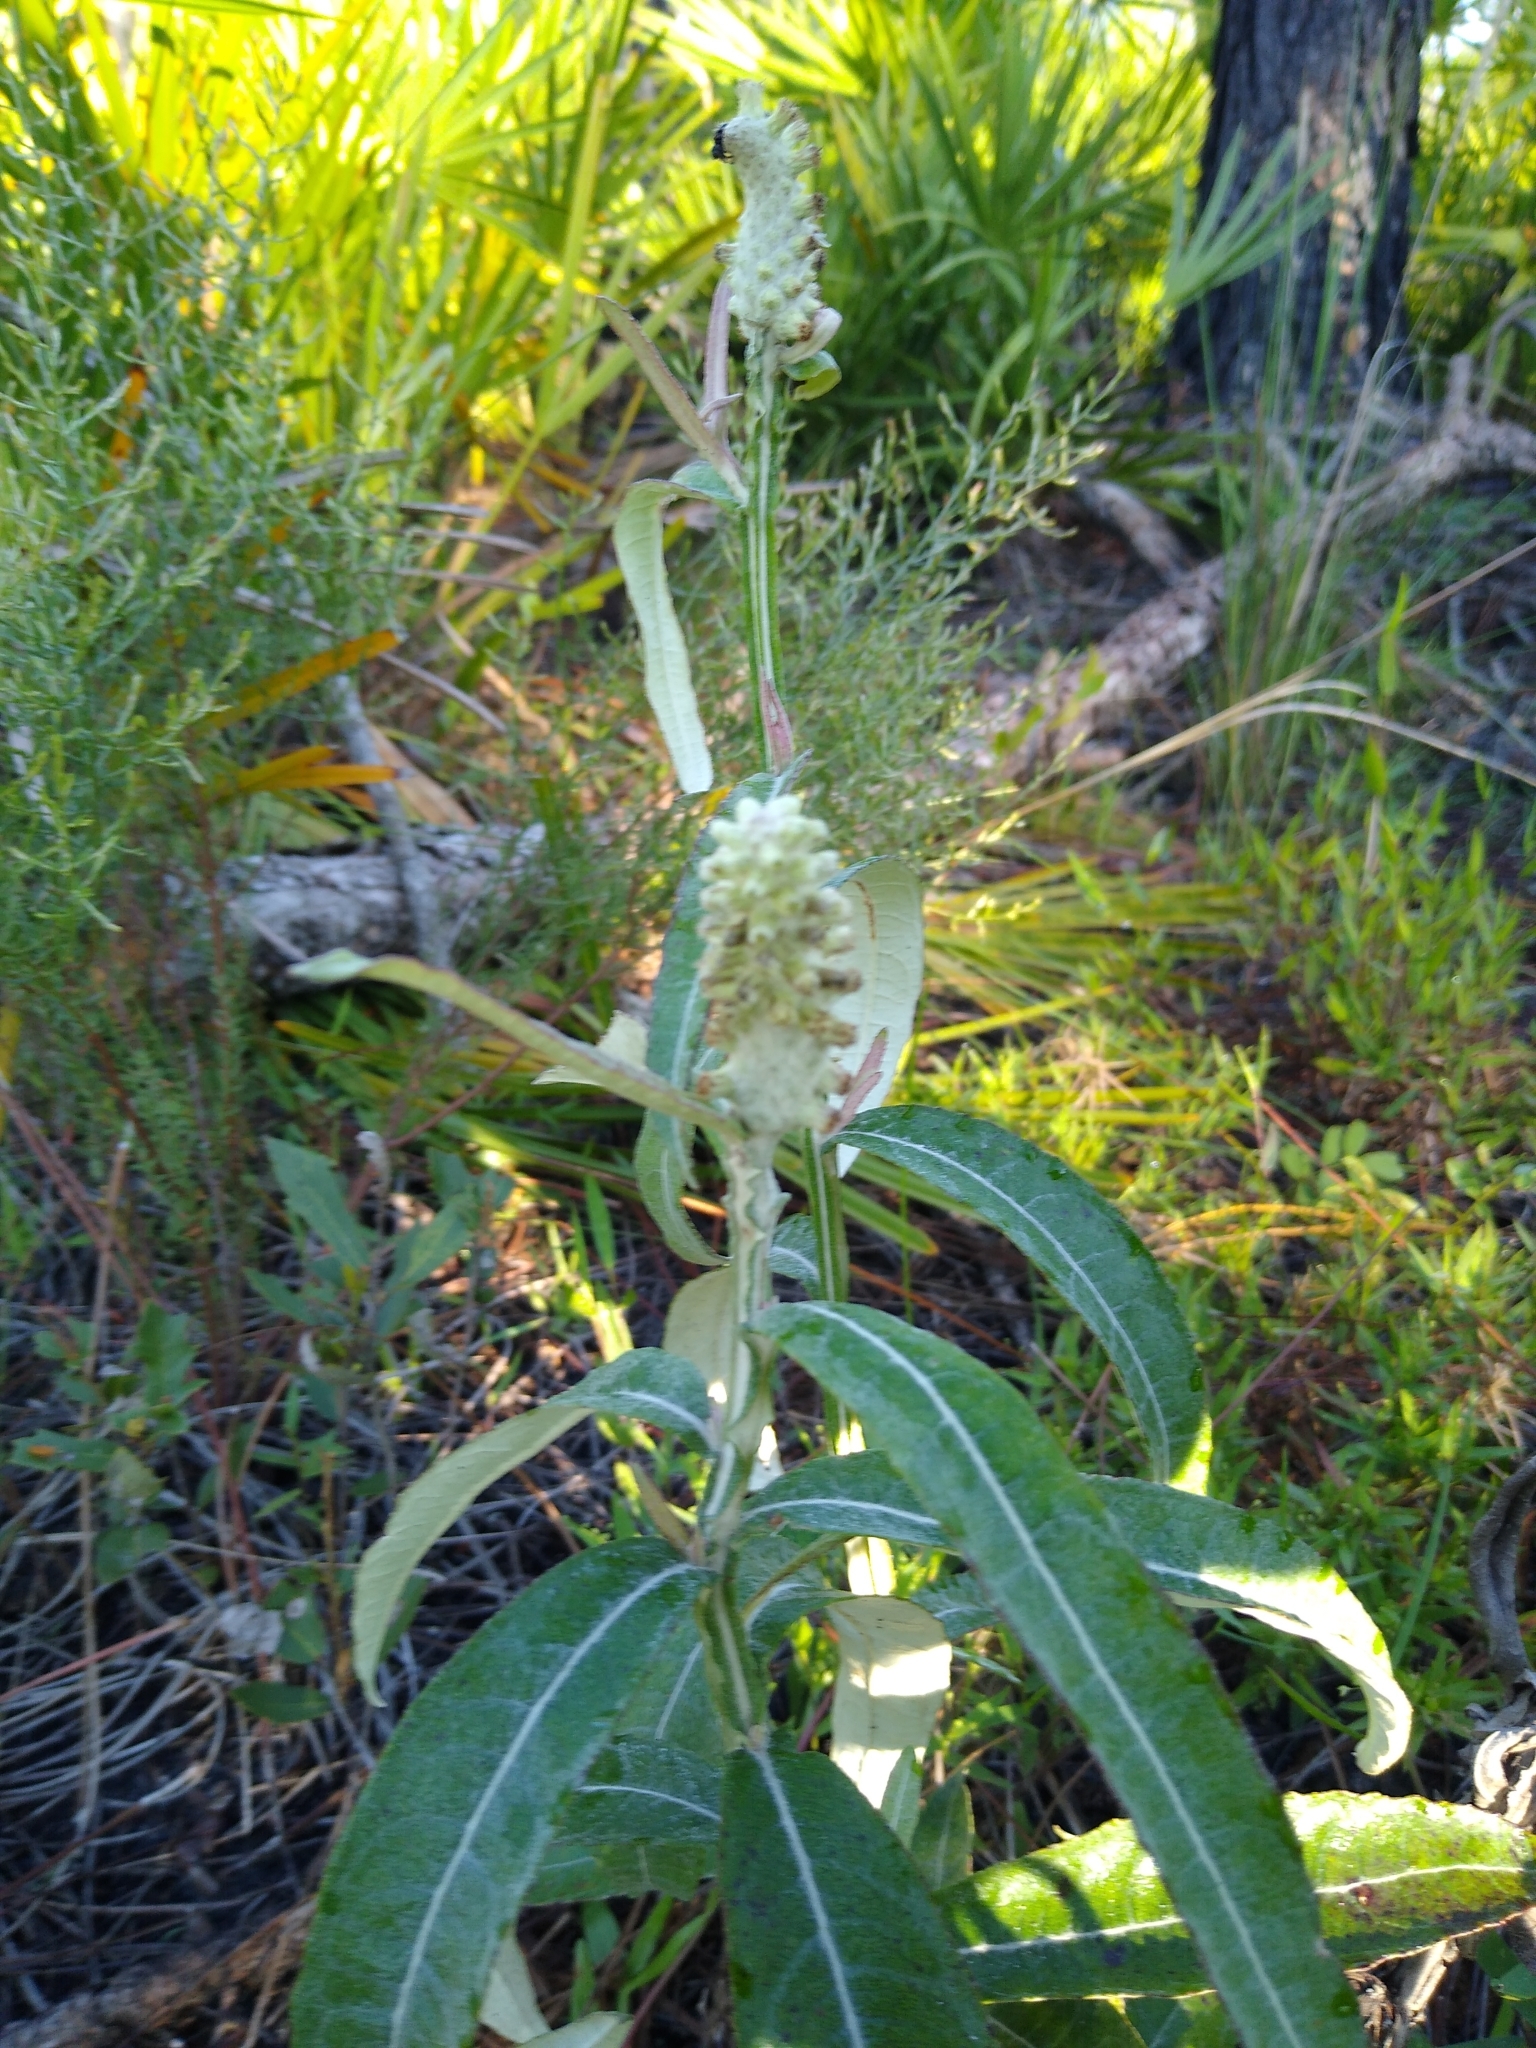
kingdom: Plantae
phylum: Tracheophyta
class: Magnoliopsida
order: Asterales
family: Asteraceae
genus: Pterocaulon
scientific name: Pterocaulon pycnostachyum
